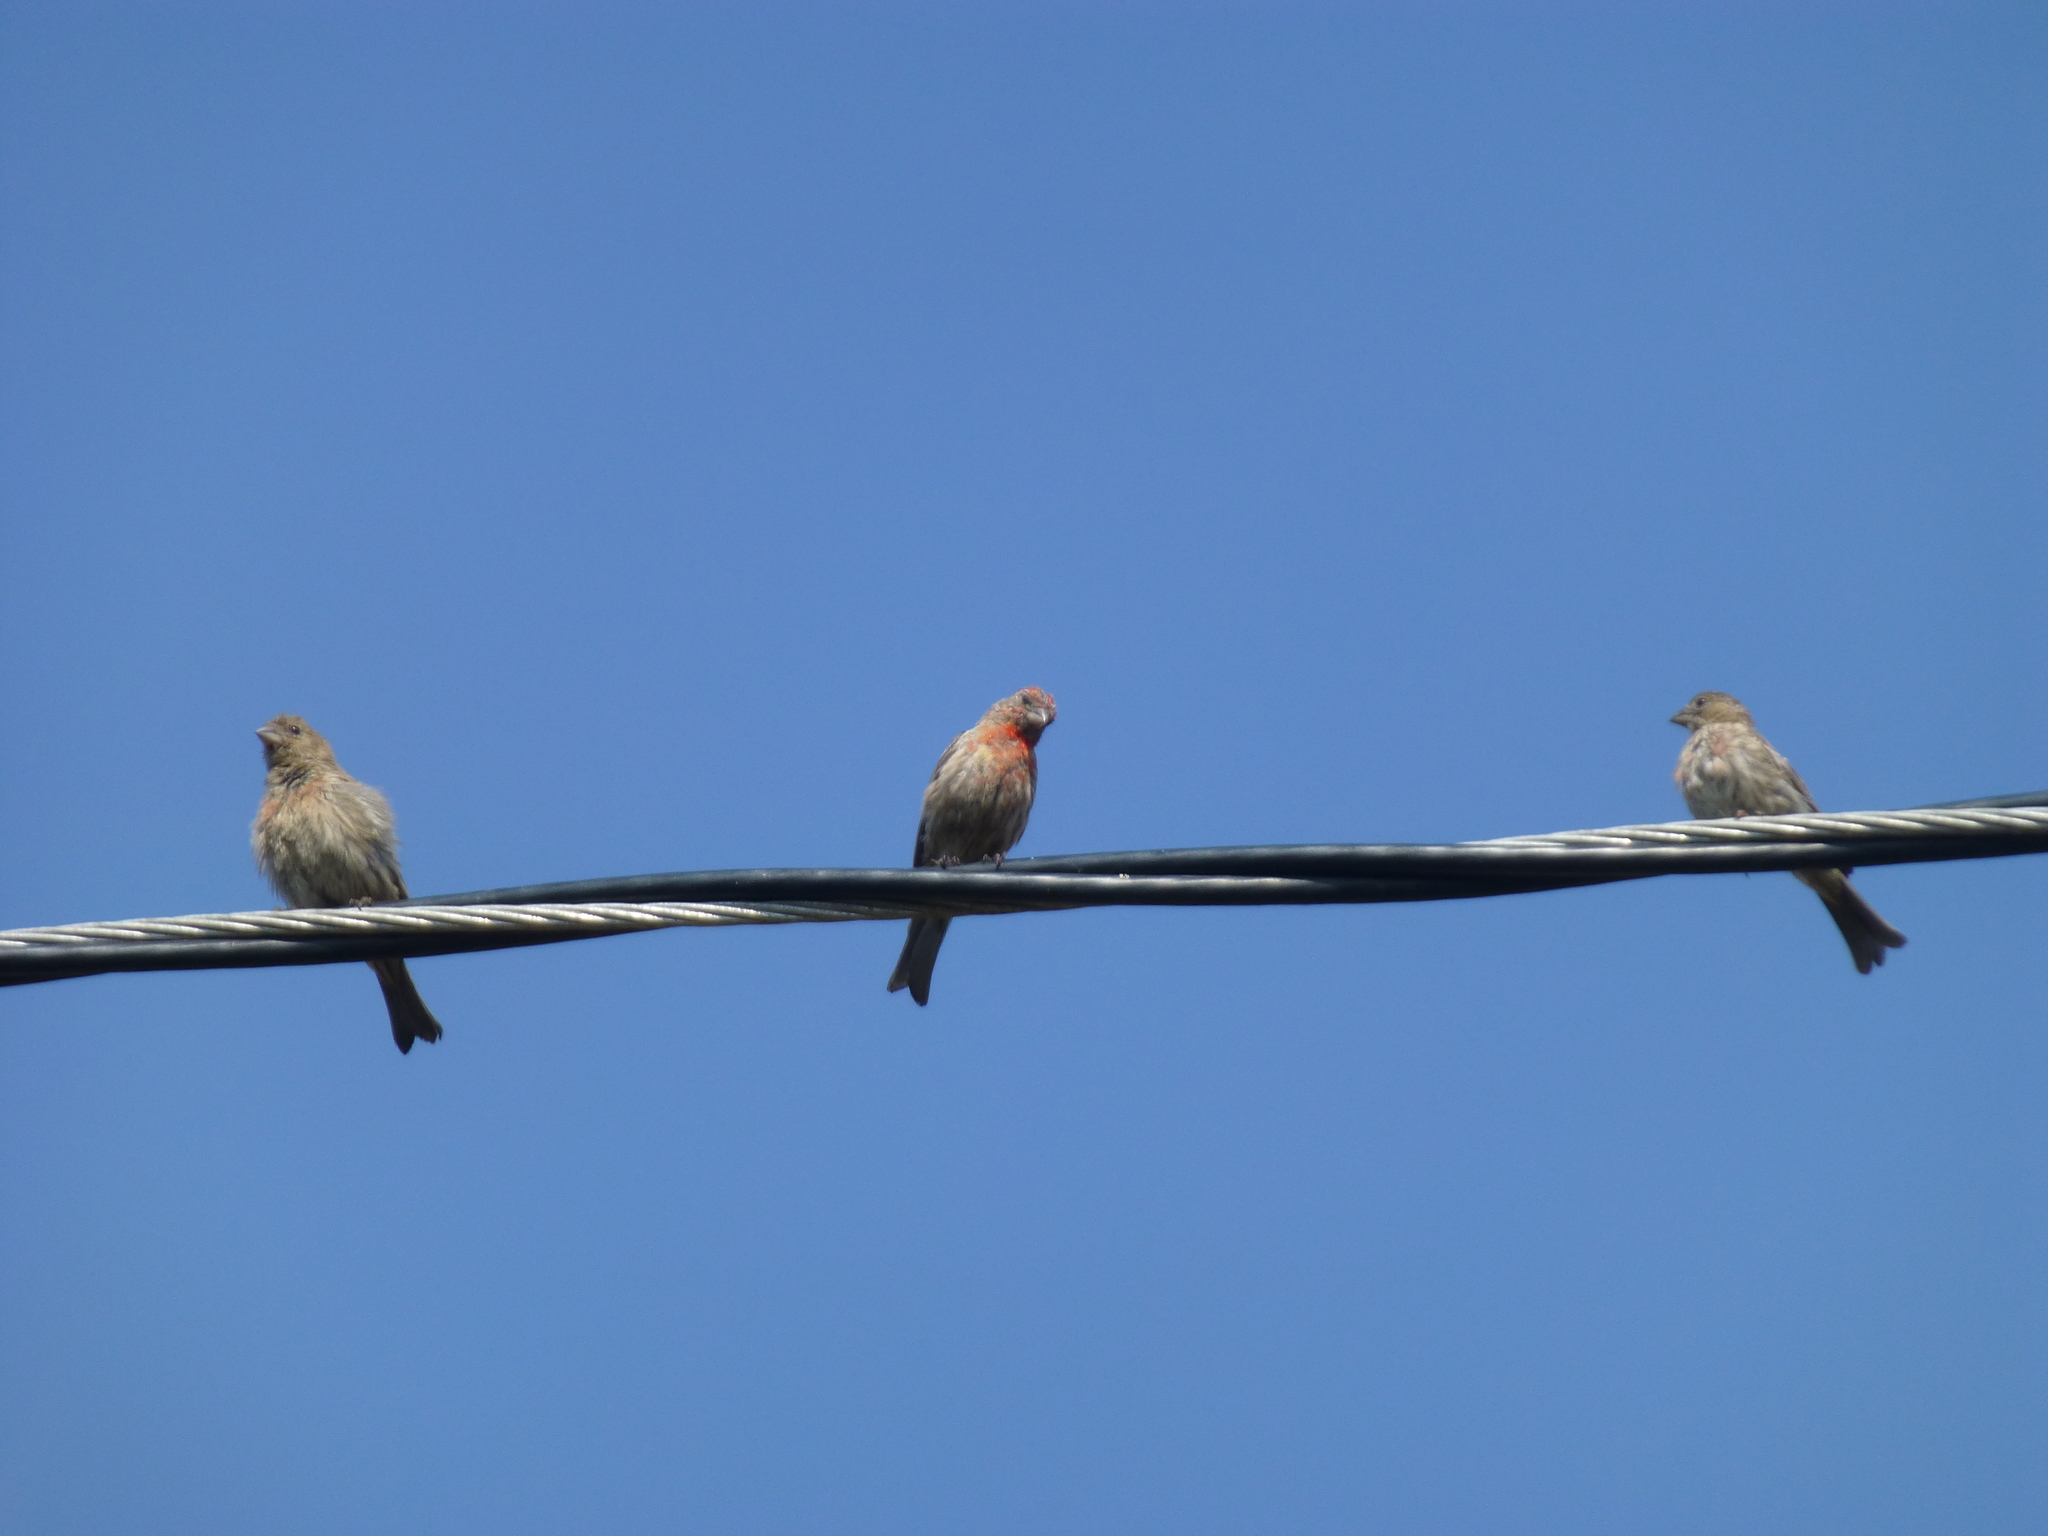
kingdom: Animalia
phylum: Chordata
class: Aves
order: Passeriformes
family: Fringillidae
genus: Haemorhous
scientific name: Haemorhous mexicanus
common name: House finch
